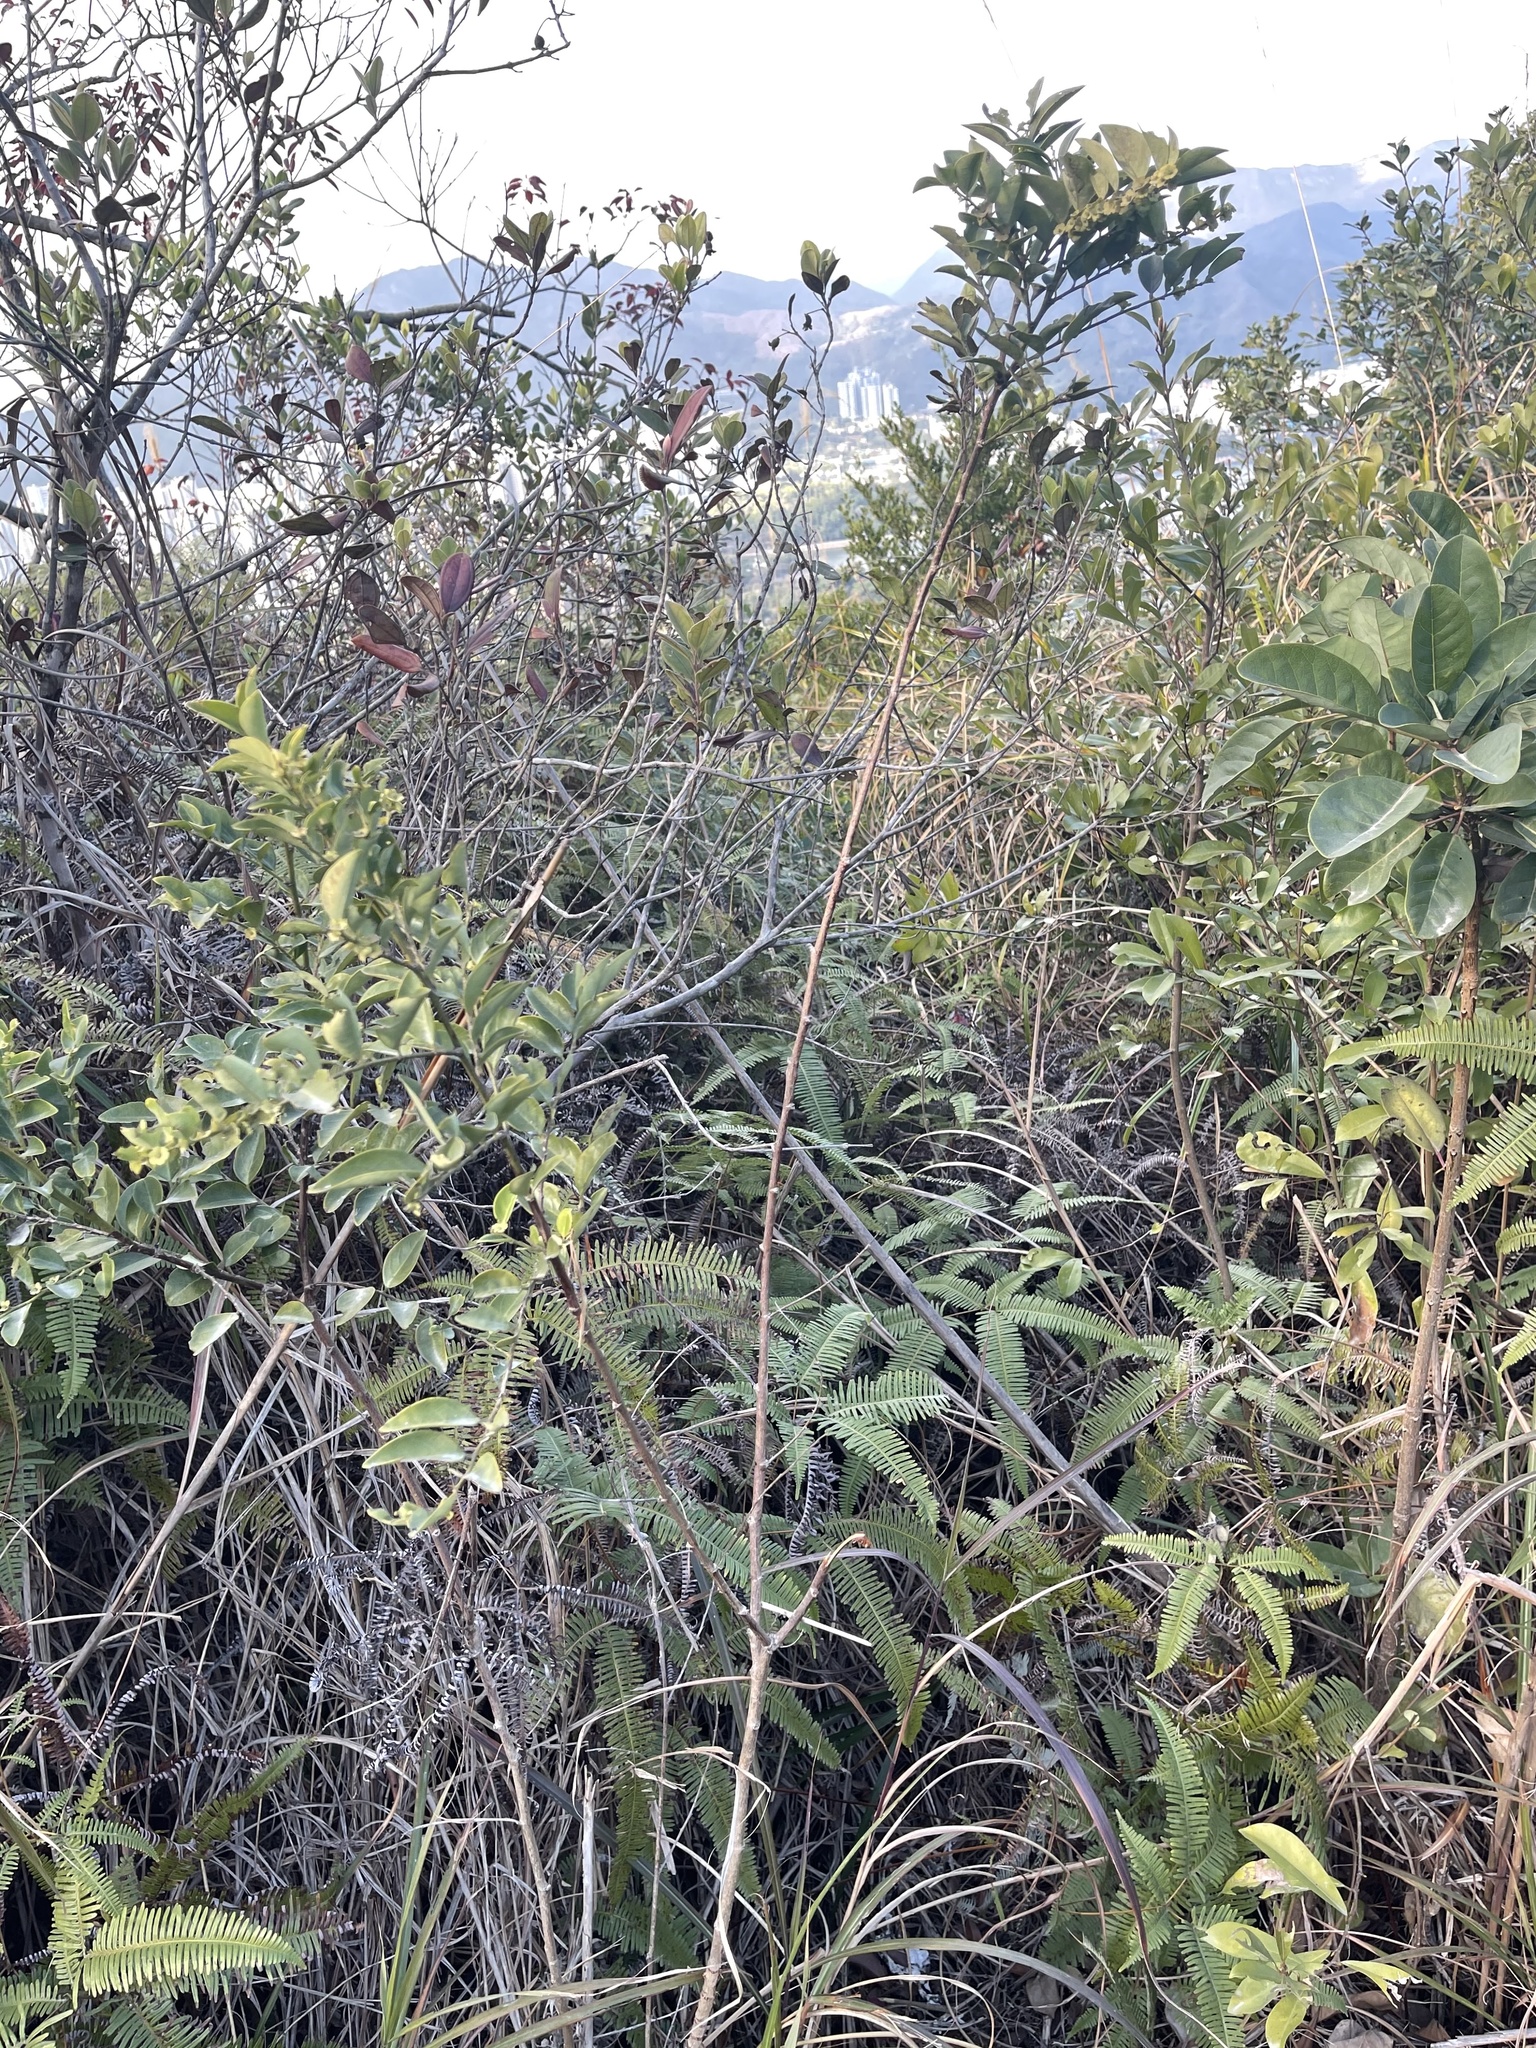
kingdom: Plantae
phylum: Tracheophyta
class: Magnoliopsida
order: Malpighiales
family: Phyllanthaceae
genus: Breynia
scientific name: Breynia fruticosa
